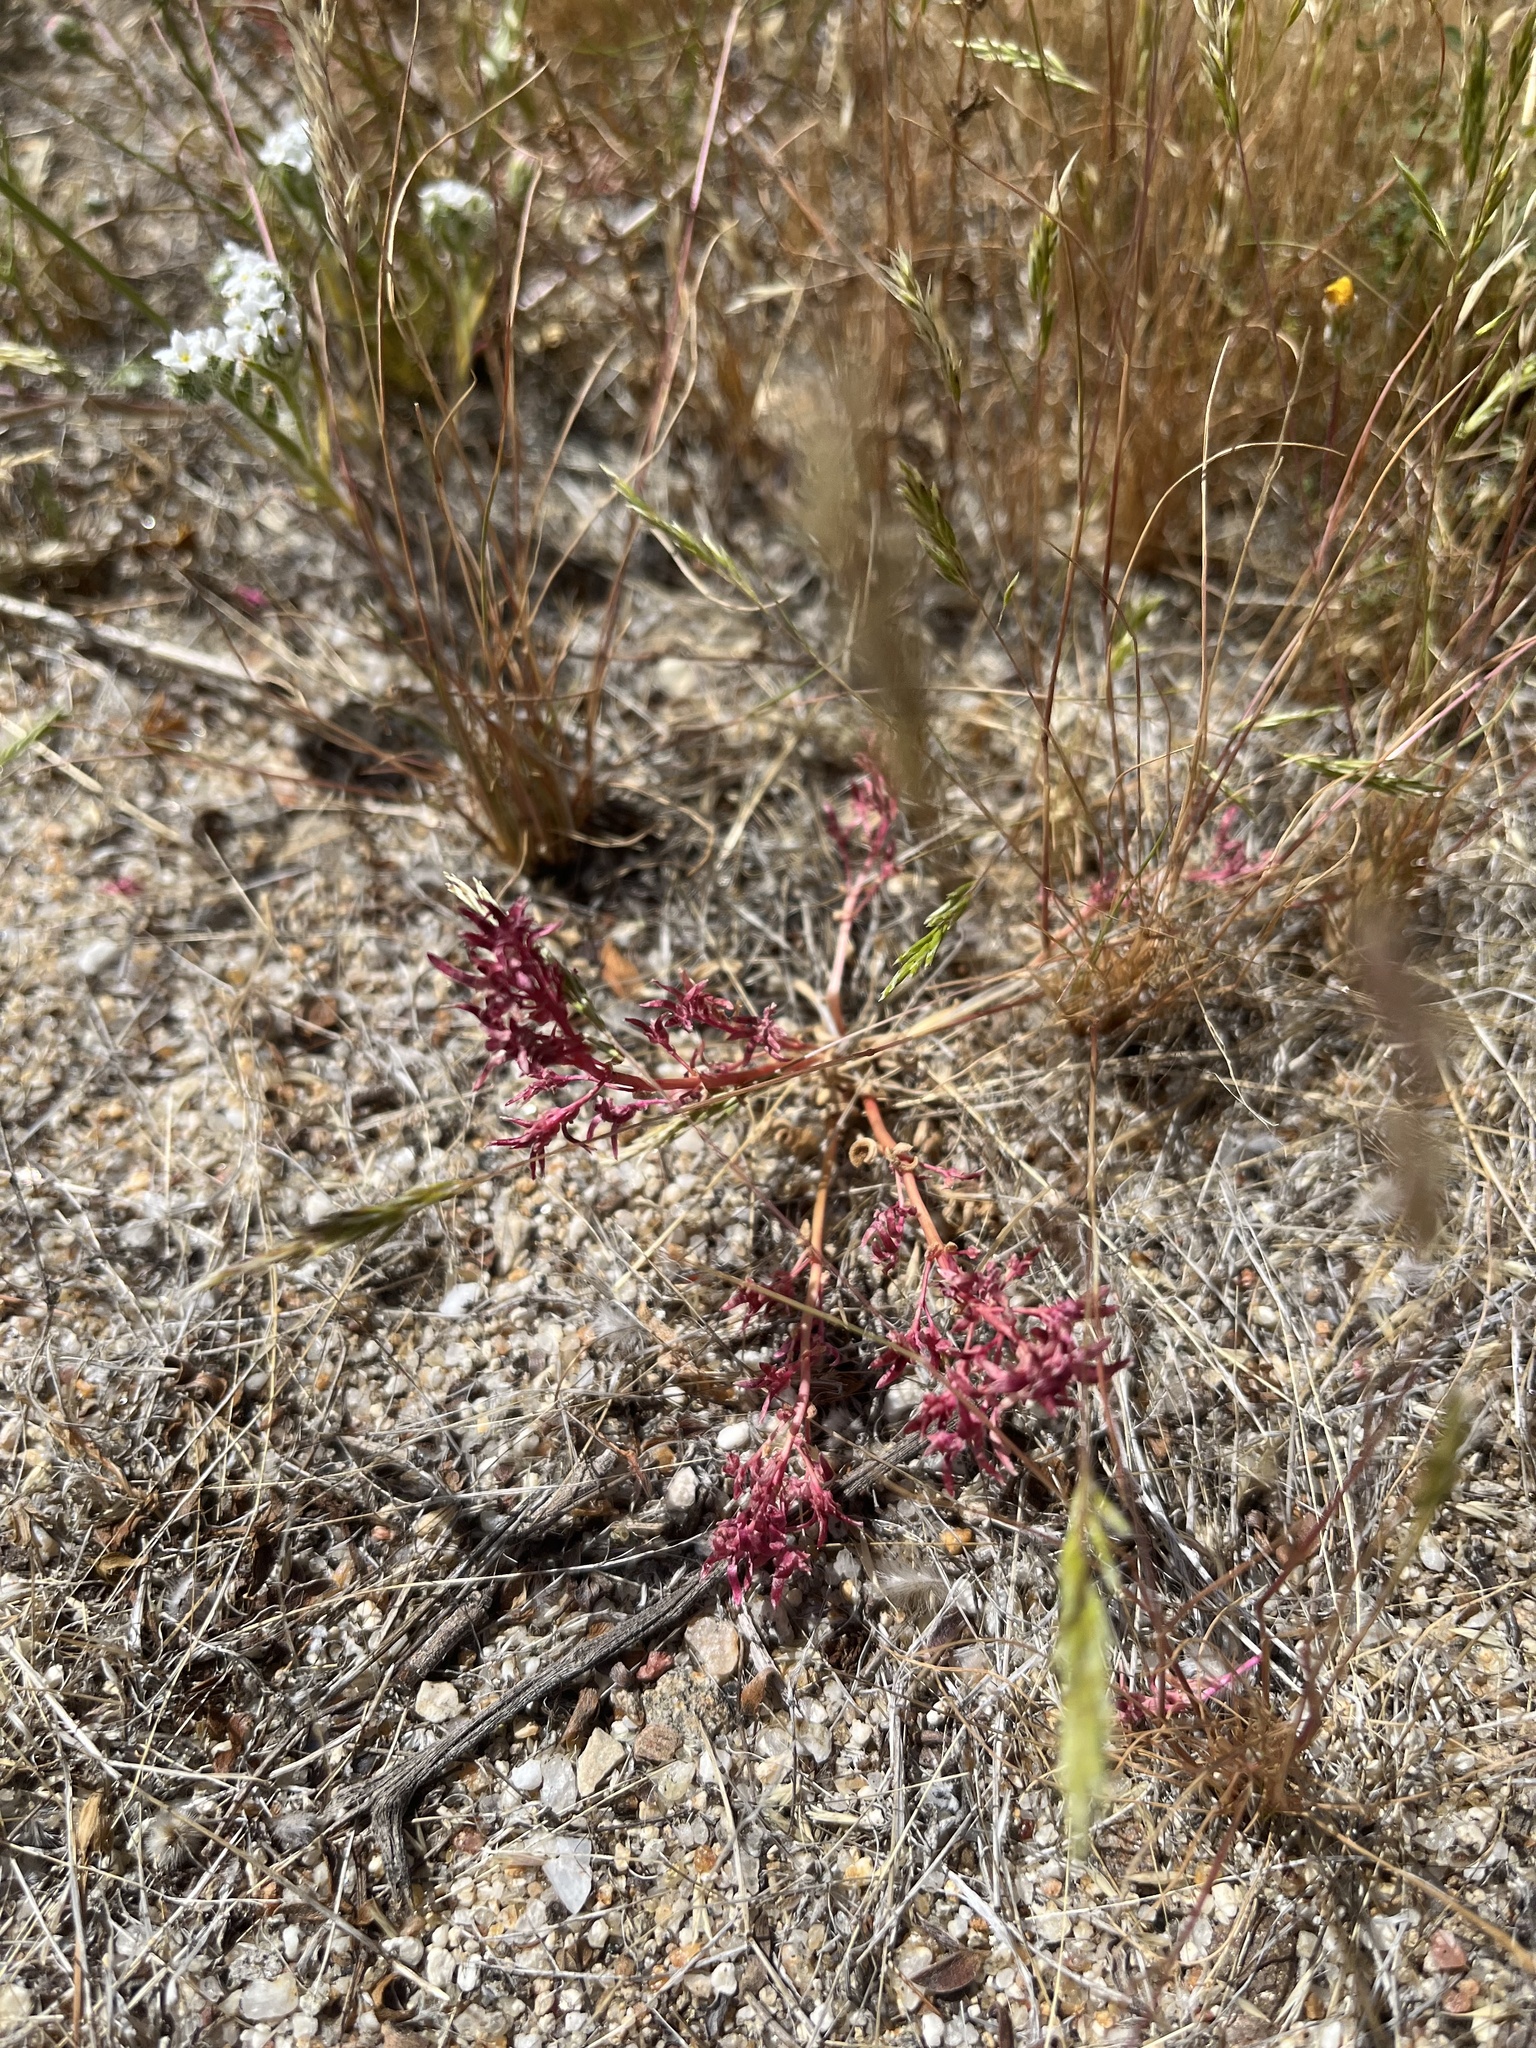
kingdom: Plantae
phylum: Tracheophyta
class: Magnoliopsida
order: Caryophyllales
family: Montiaceae
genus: Calyptridium
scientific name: Calyptridium monandrum
